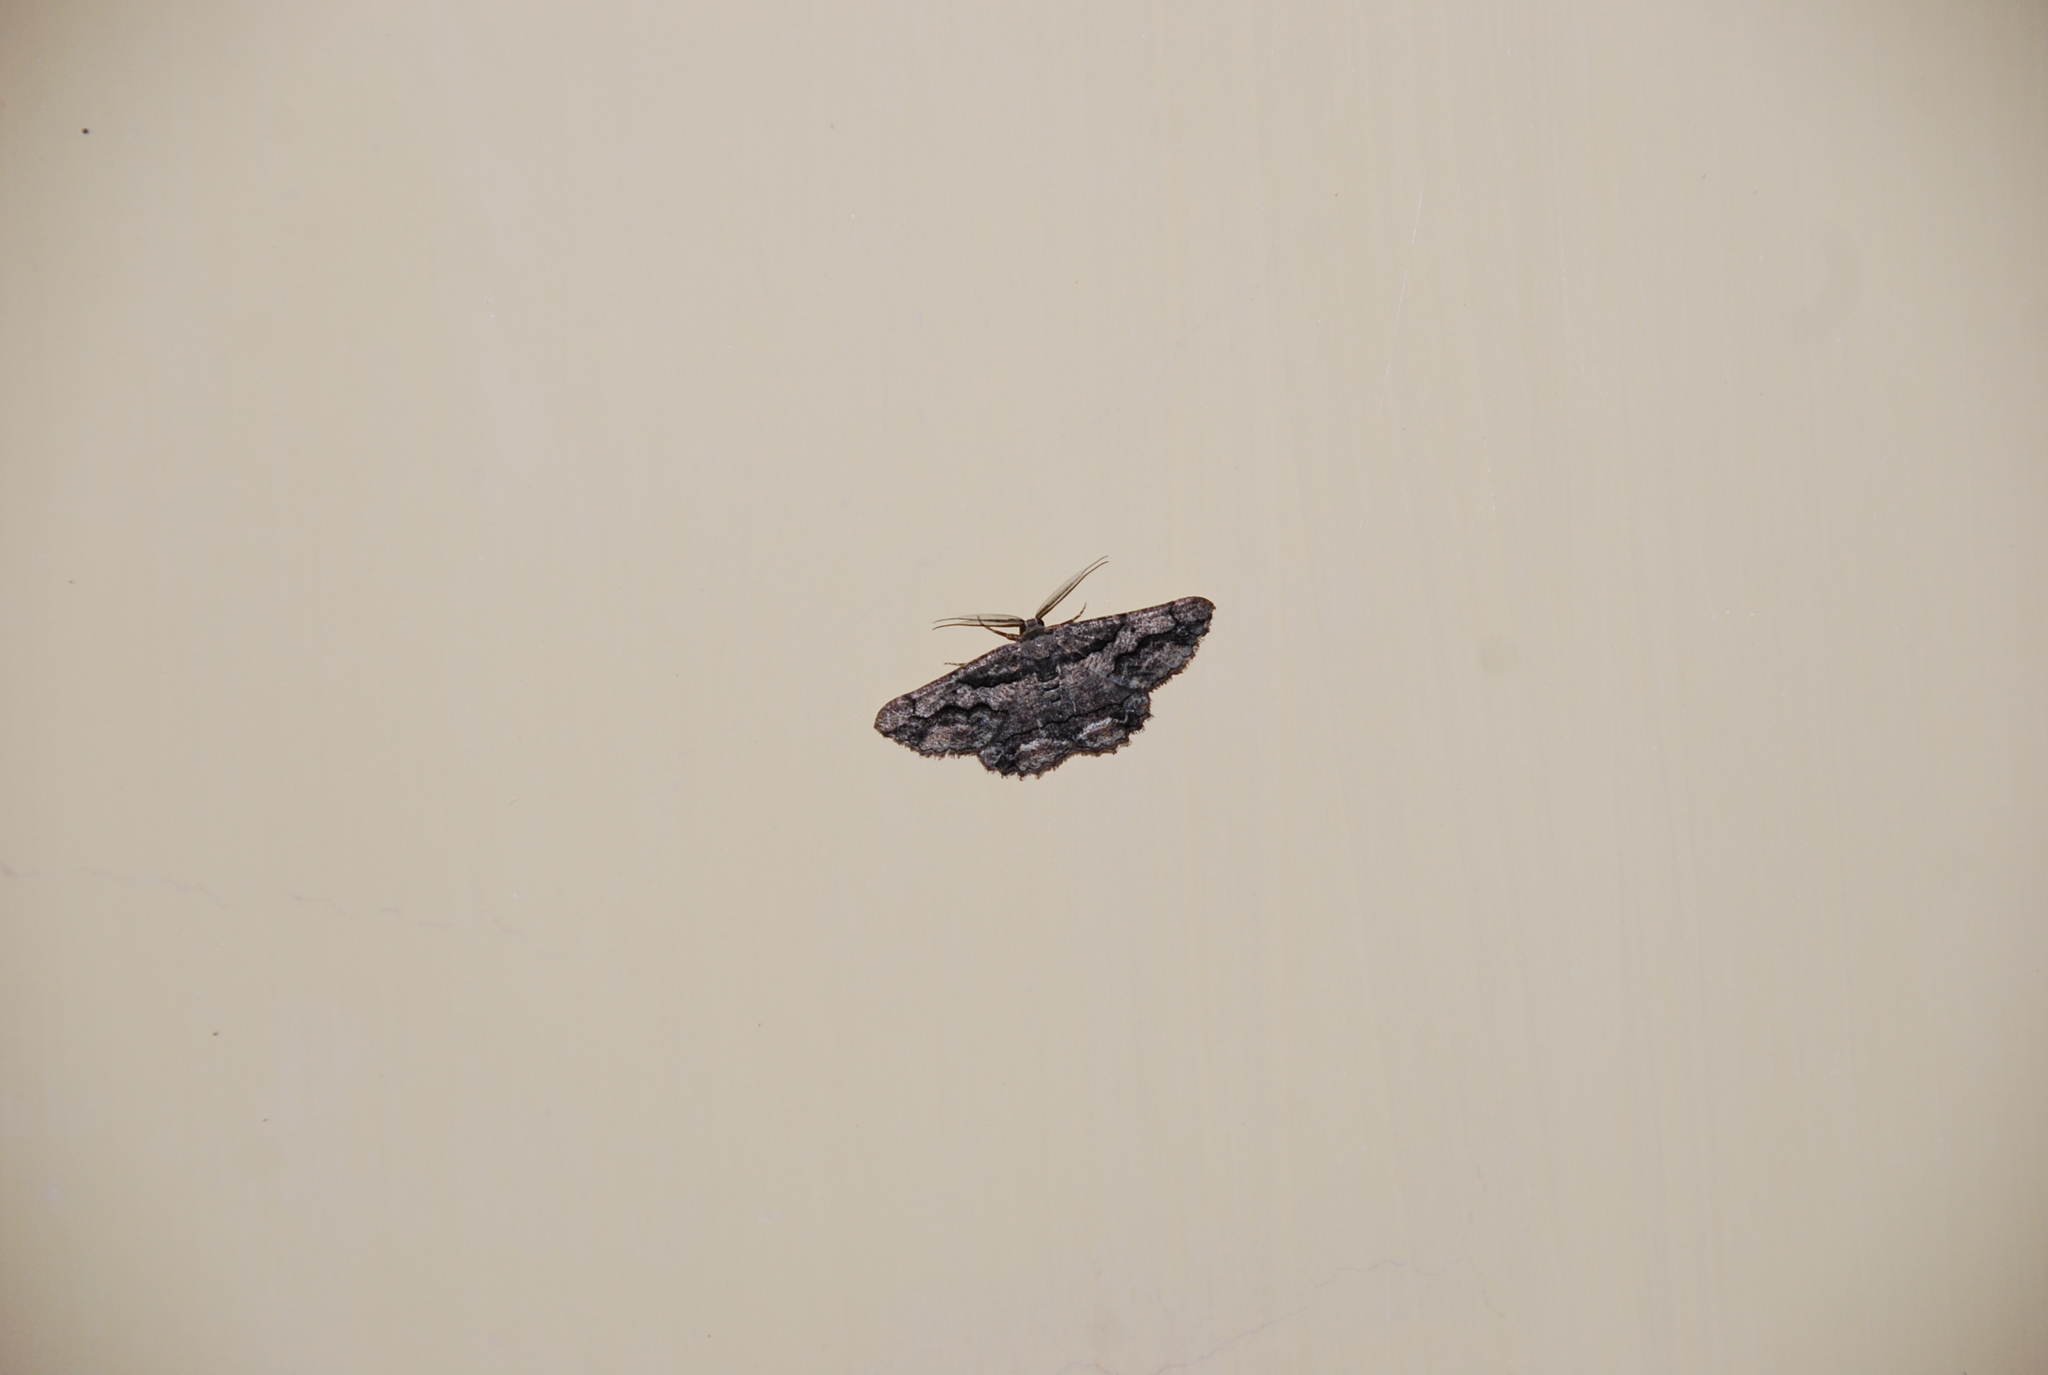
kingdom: Animalia
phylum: Arthropoda
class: Insecta
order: Lepidoptera
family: Geometridae
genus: Menophra
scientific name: Menophra japygiaria
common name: Brassy waved umber
